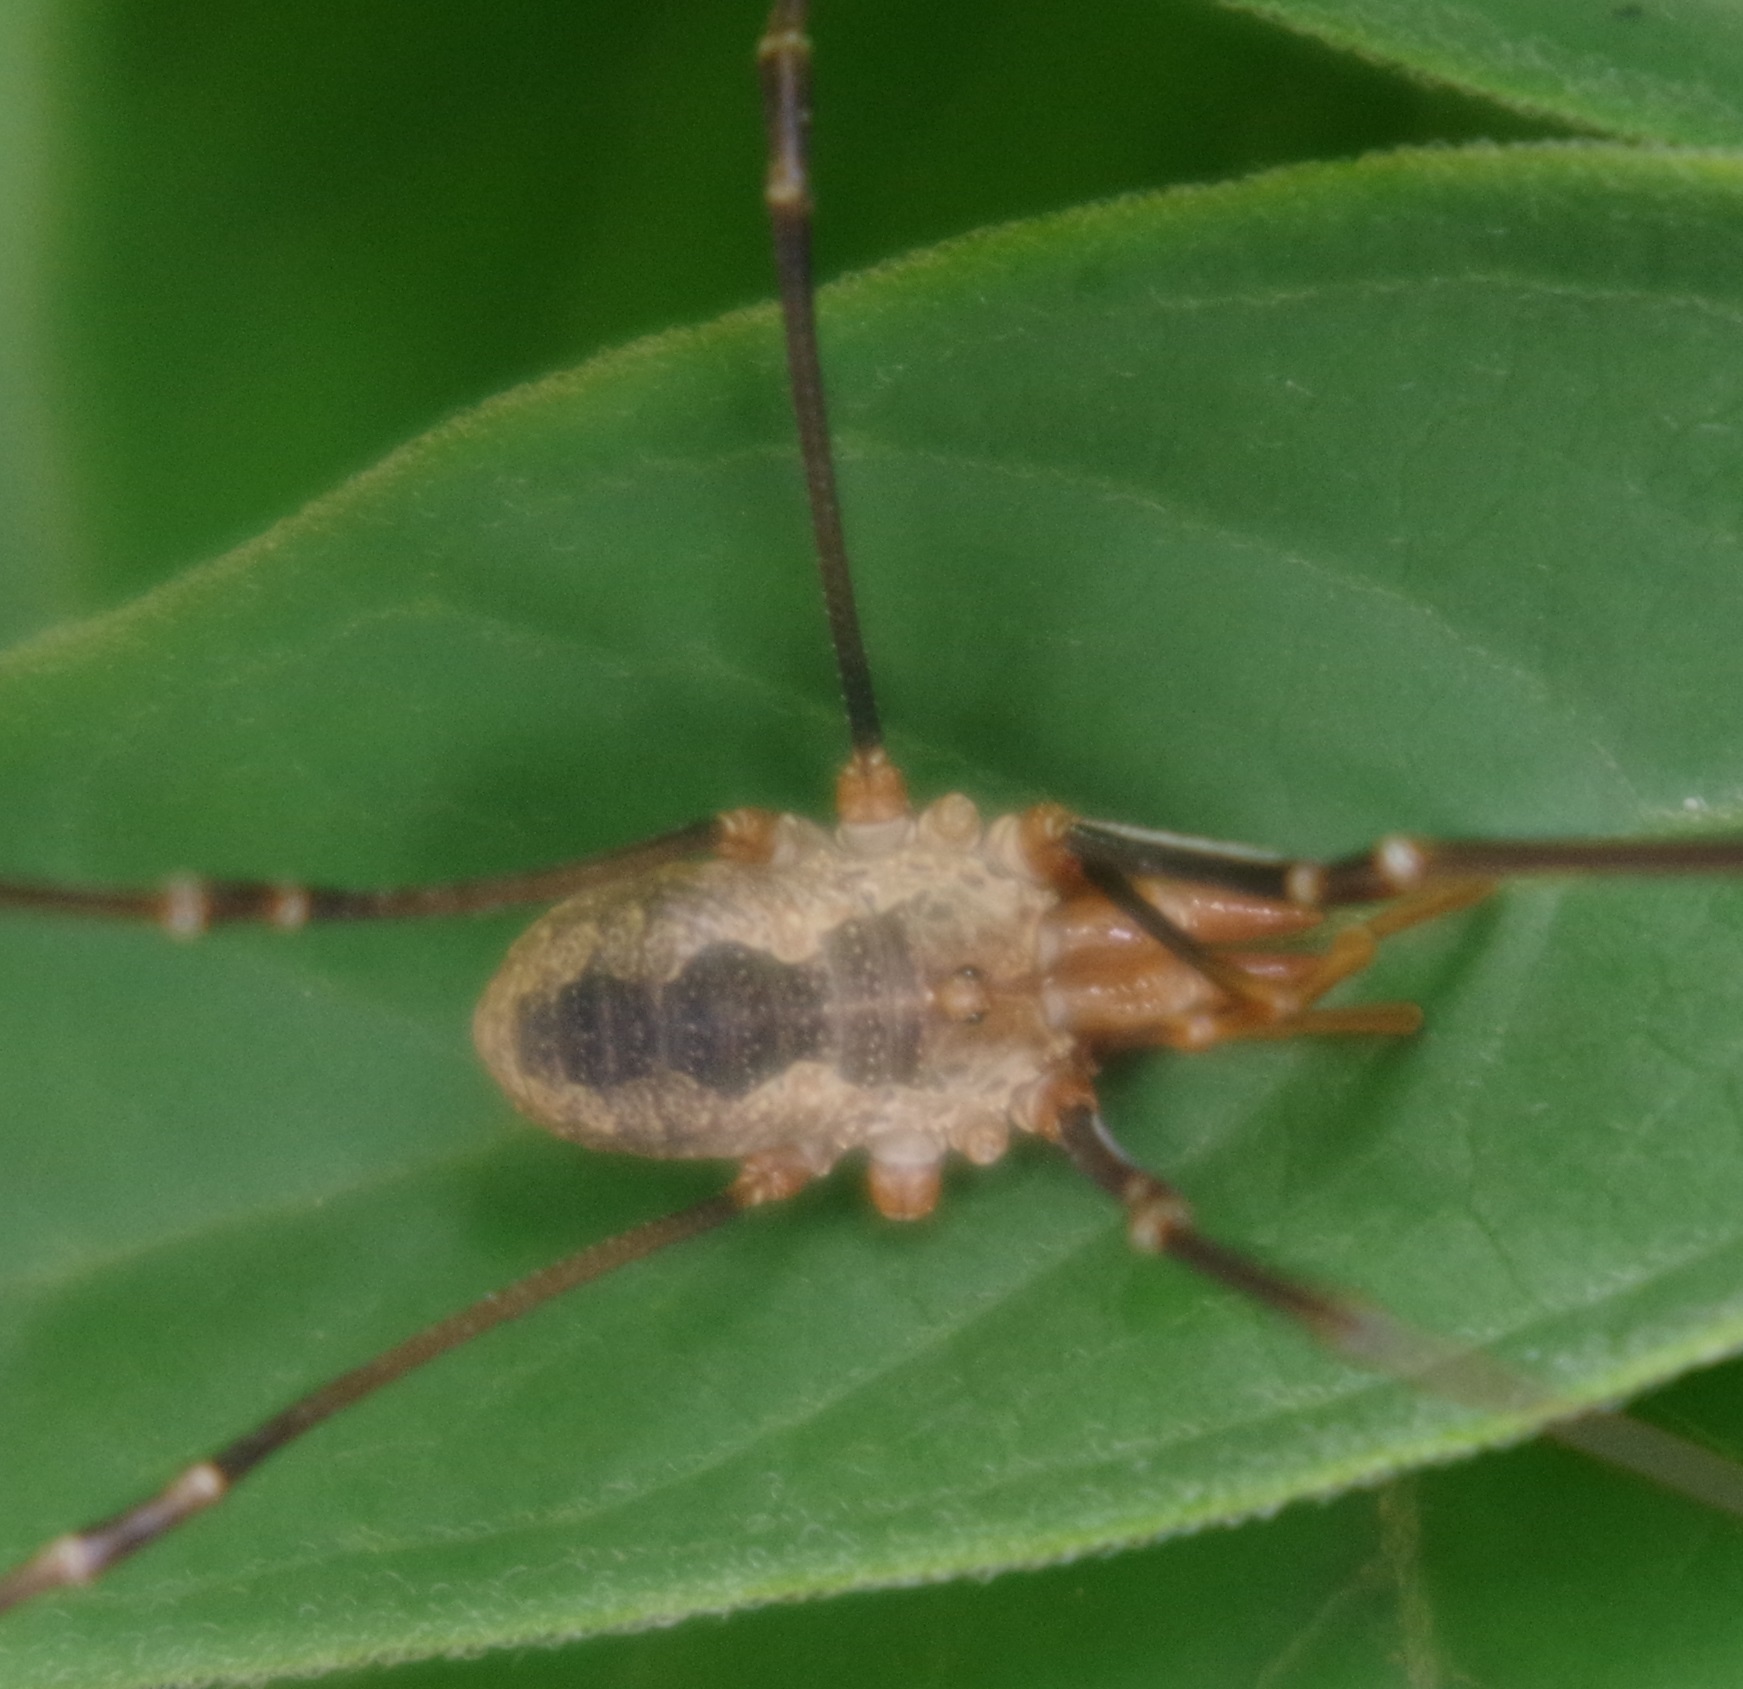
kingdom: Animalia
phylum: Arthropoda
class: Arachnida
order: Opiliones
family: Phalangiidae
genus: Phalangium
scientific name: Phalangium opilio
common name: Daddy longleg
